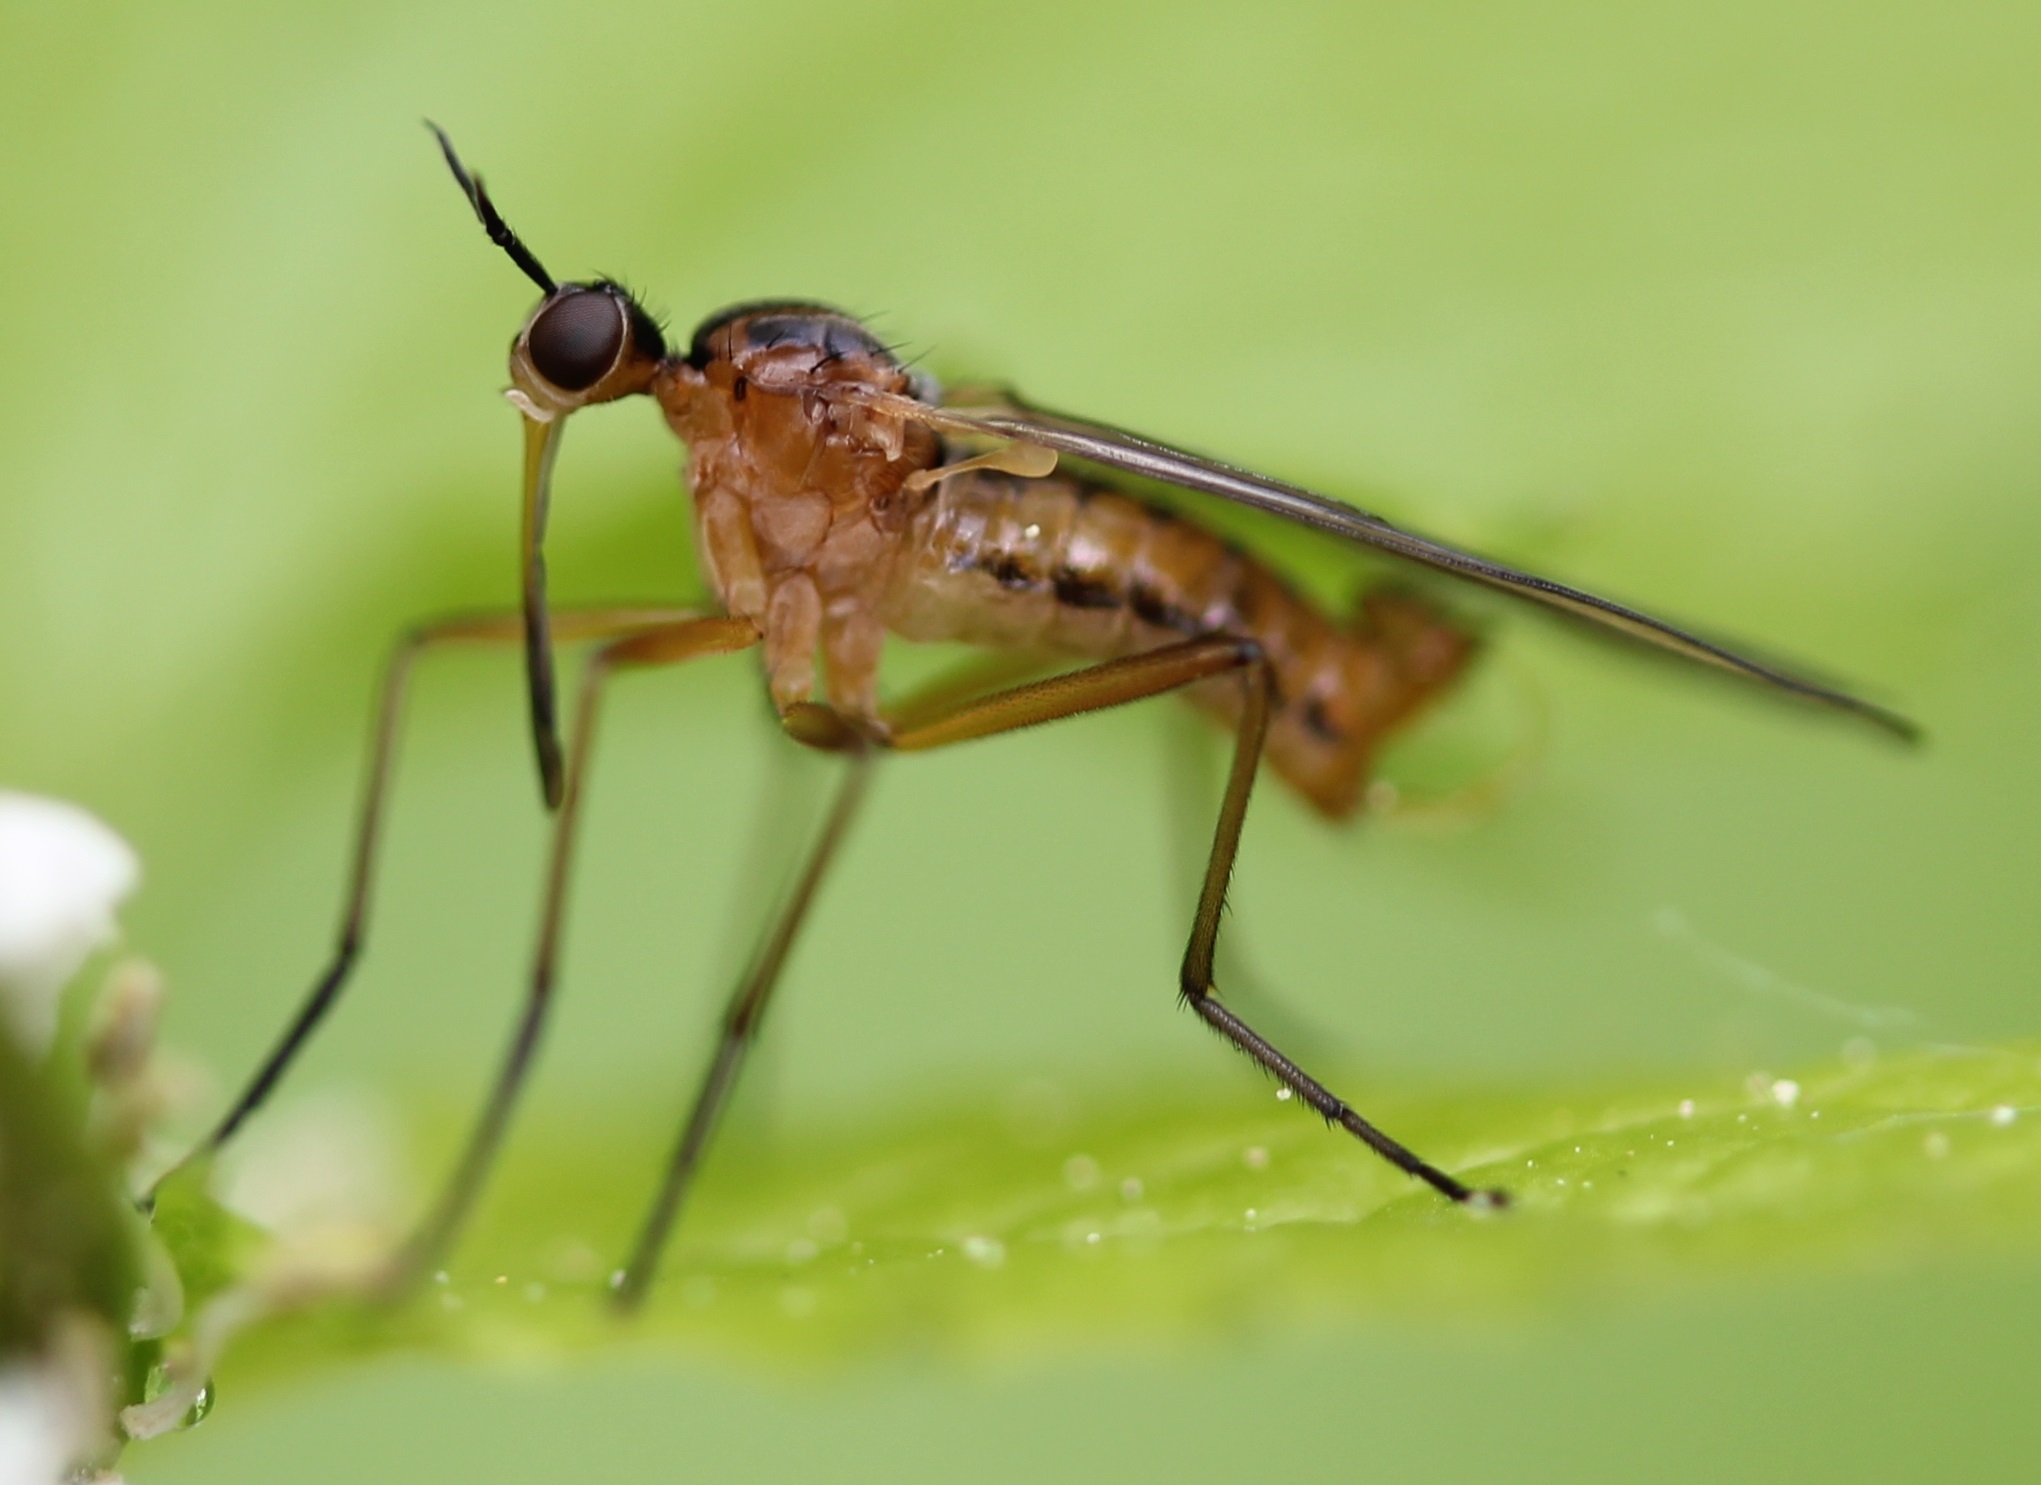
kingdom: Animalia
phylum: Arthropoda
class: Insecta
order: Diptera
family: Empididae
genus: Empis
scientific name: Empis trigramma
